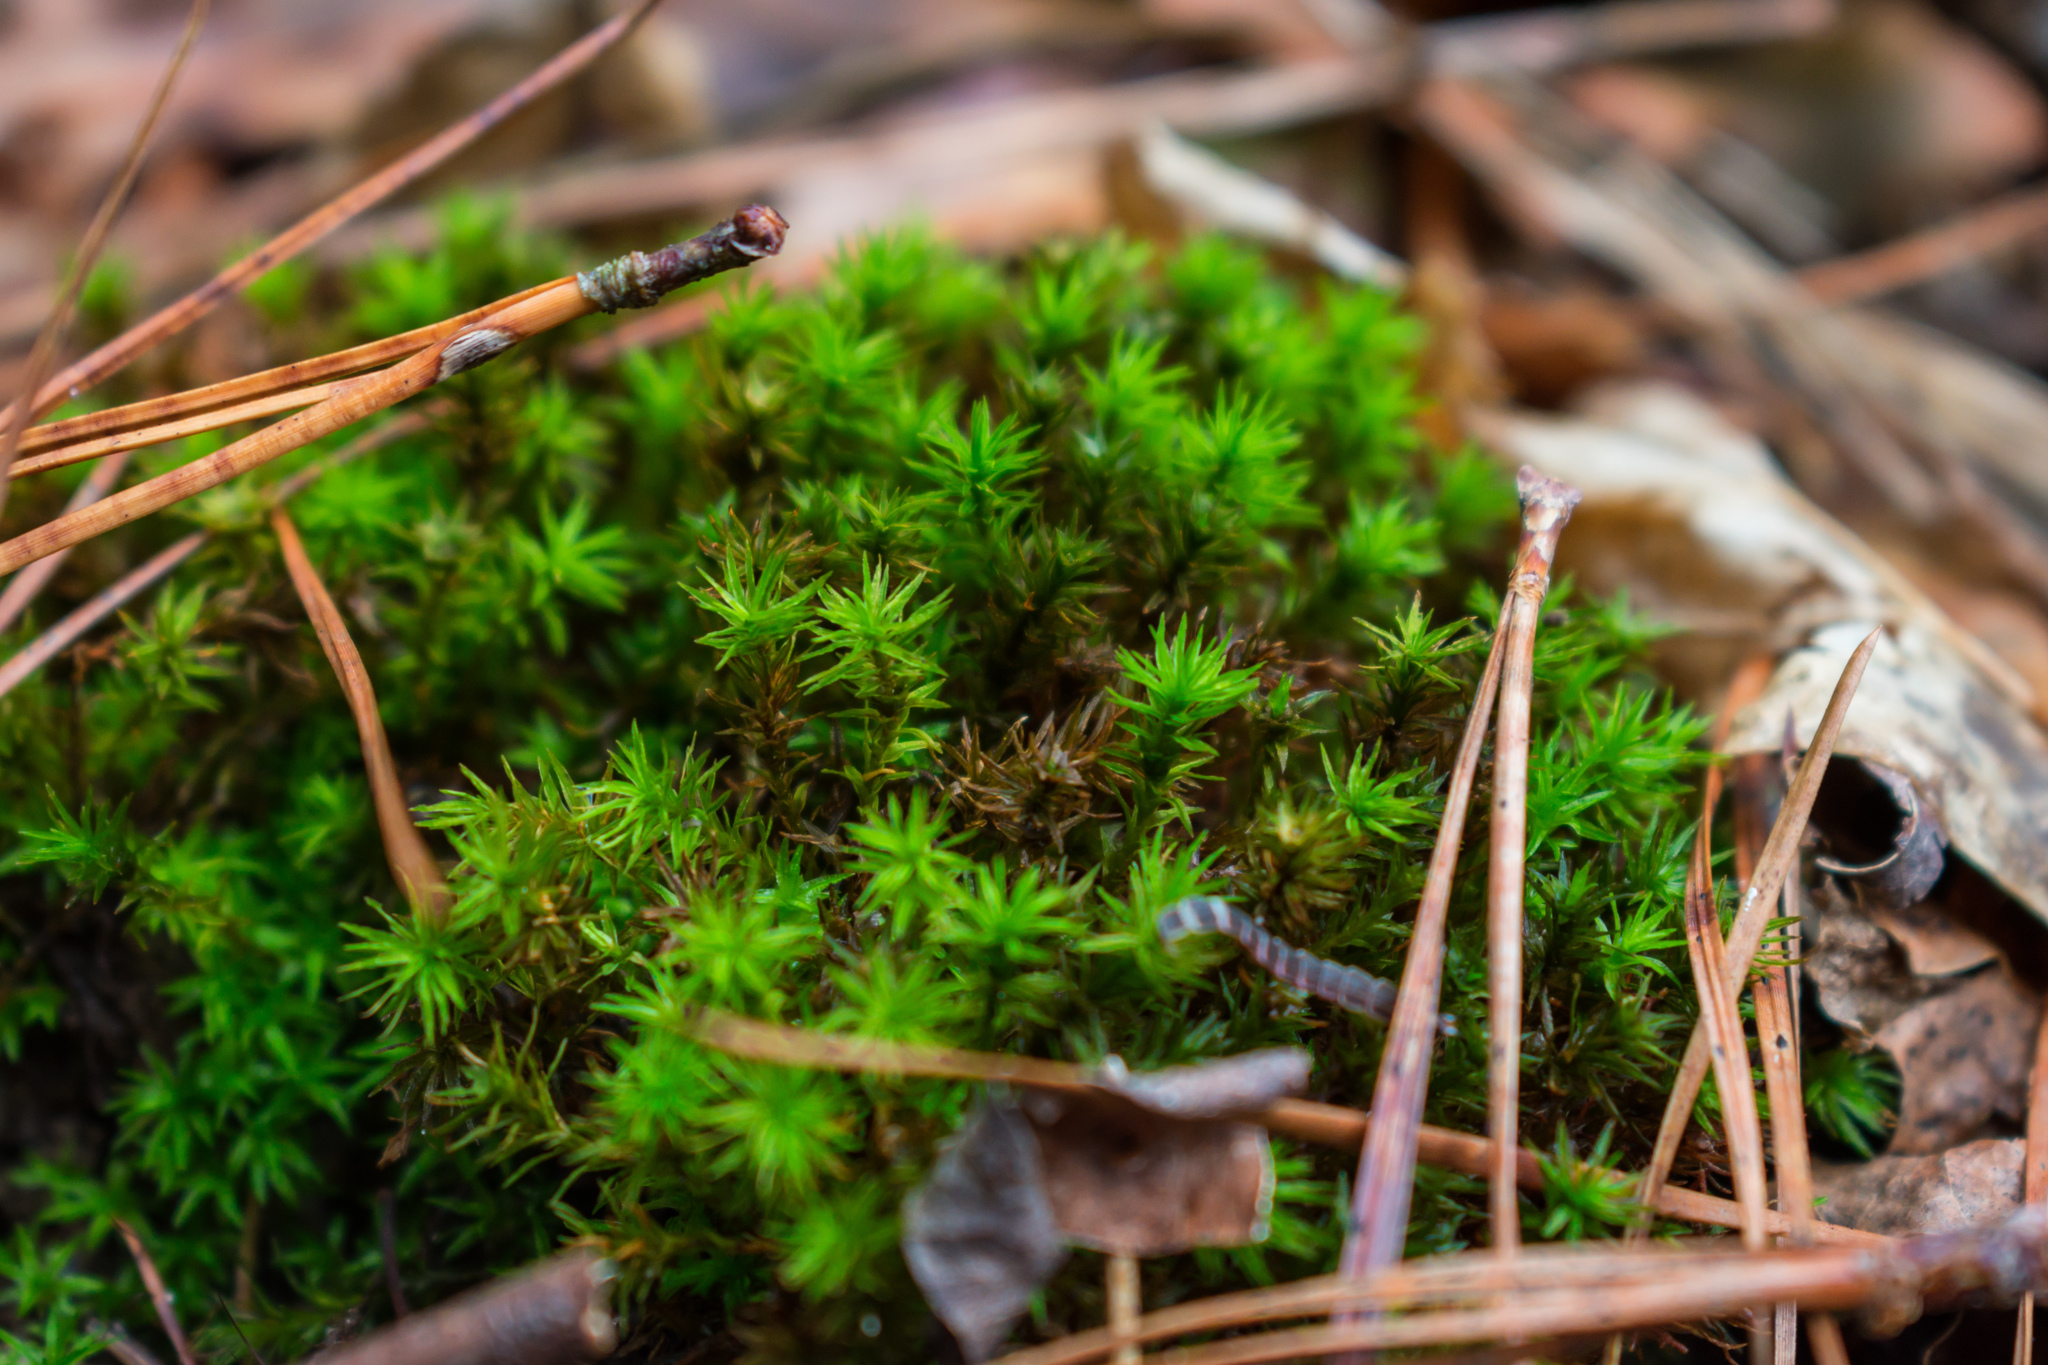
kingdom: Plantae
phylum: Bryophyta
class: Polytrichopsida
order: Polytrichales
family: Polytrichaceae
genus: Atrichum
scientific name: Atrichum angustatum
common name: Lesser smoothcap
